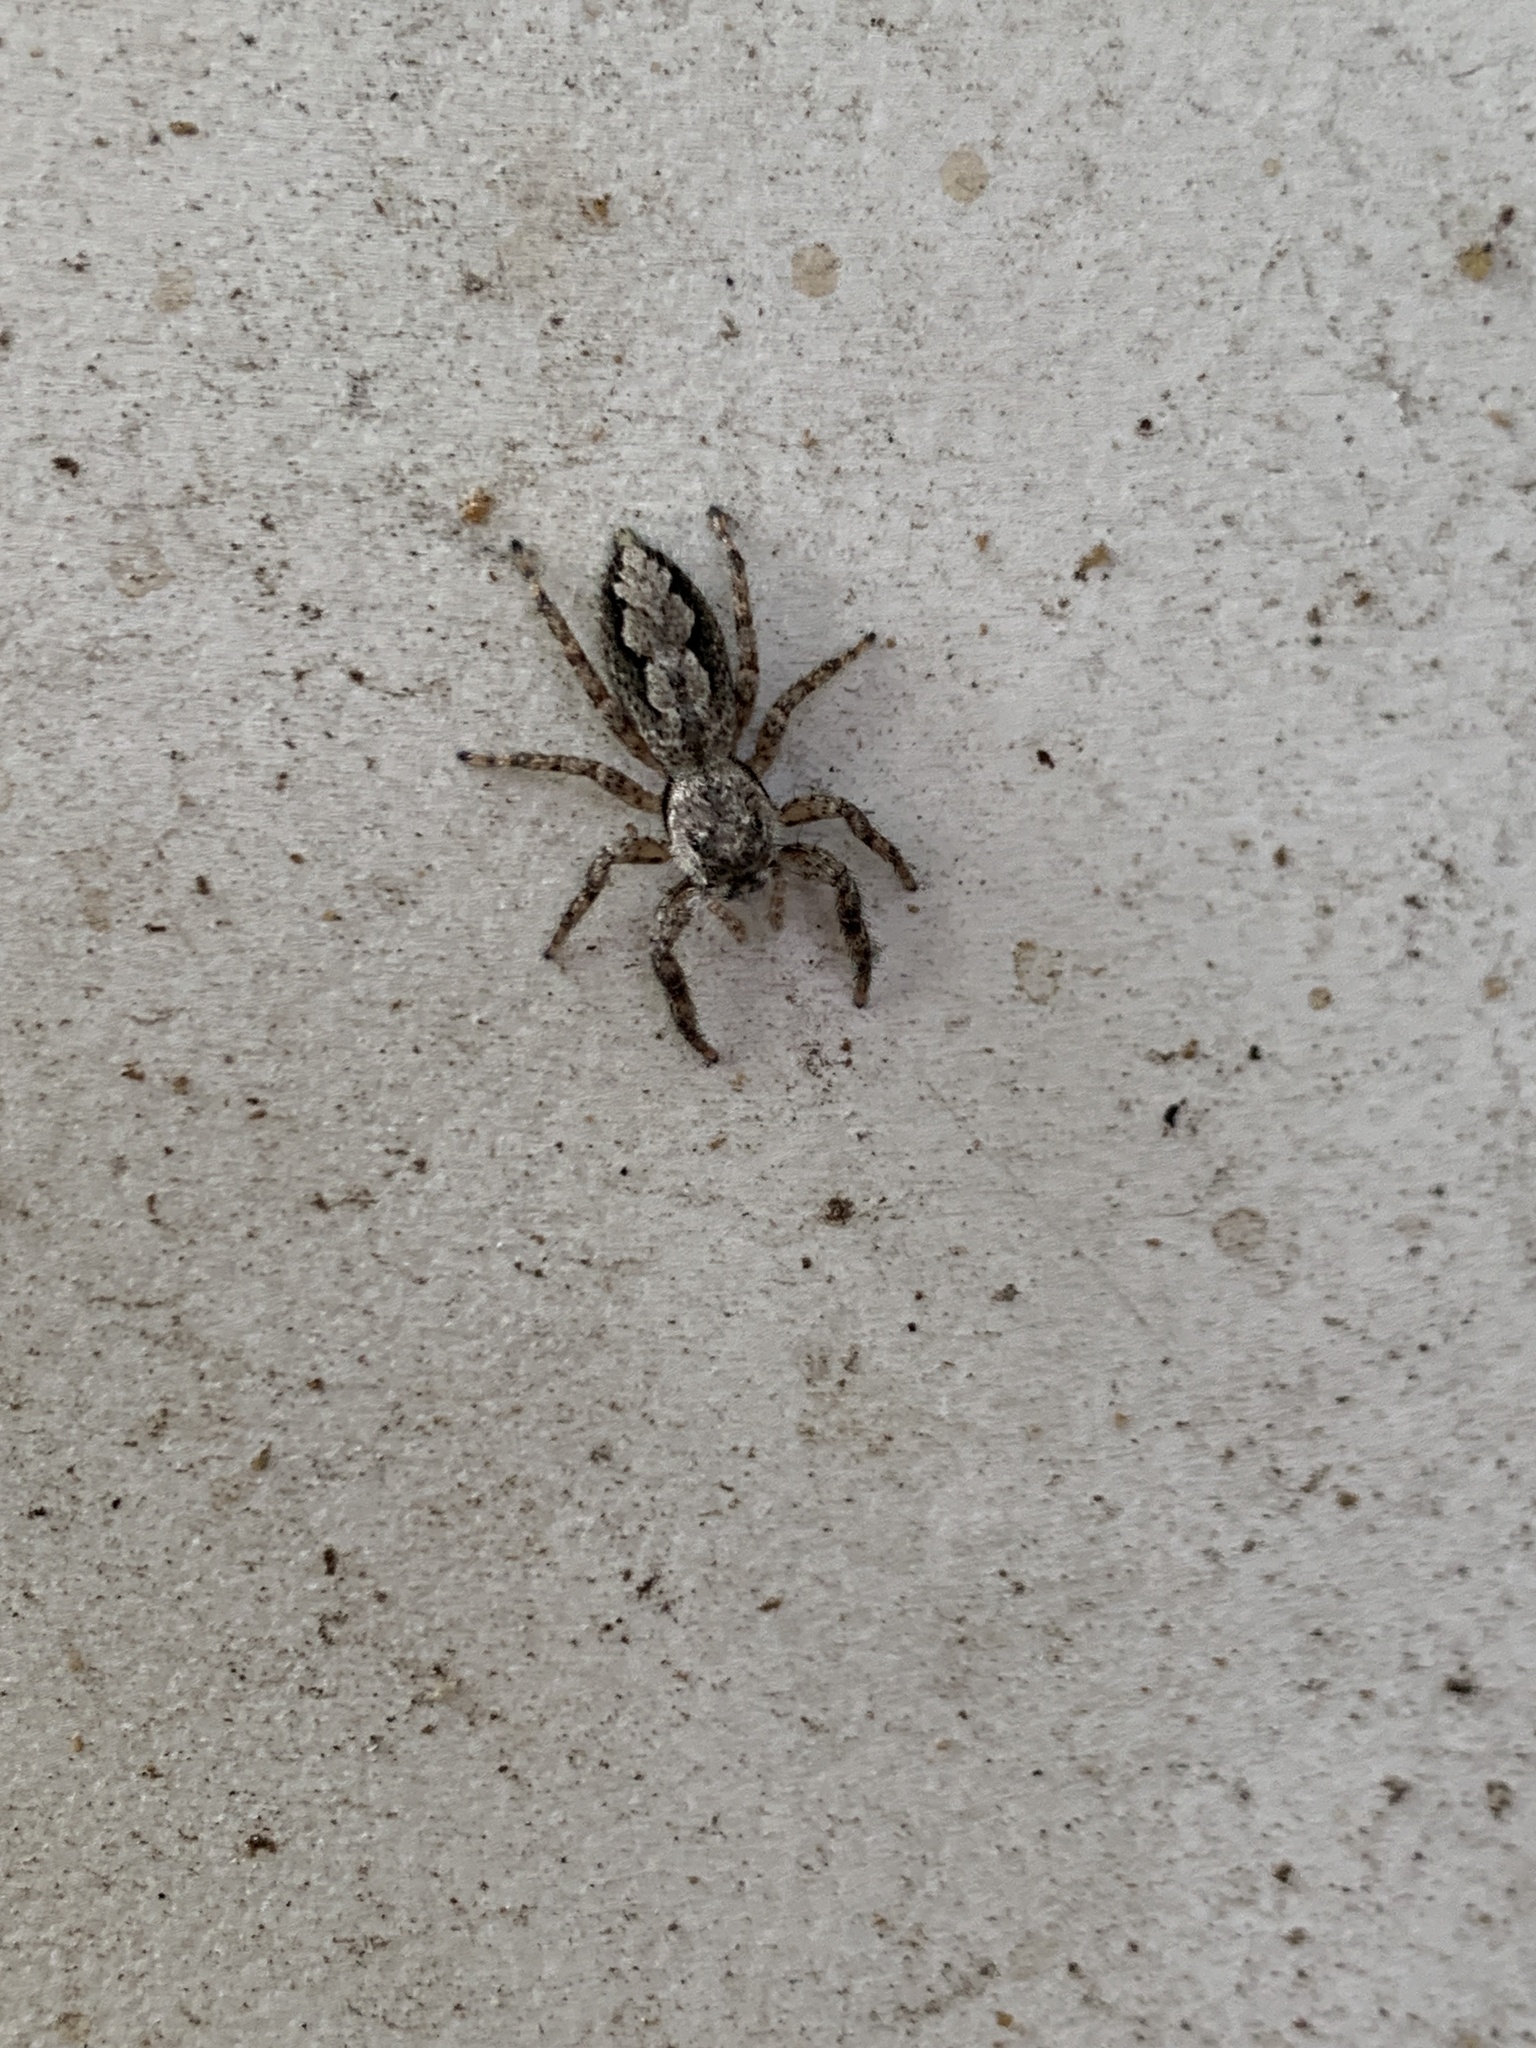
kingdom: Animalia
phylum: Arthropoda
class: Arachnida
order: Araneae
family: Salticidae
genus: Platycryptus
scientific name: Platycryptus undatus
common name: Tan jumping spider
